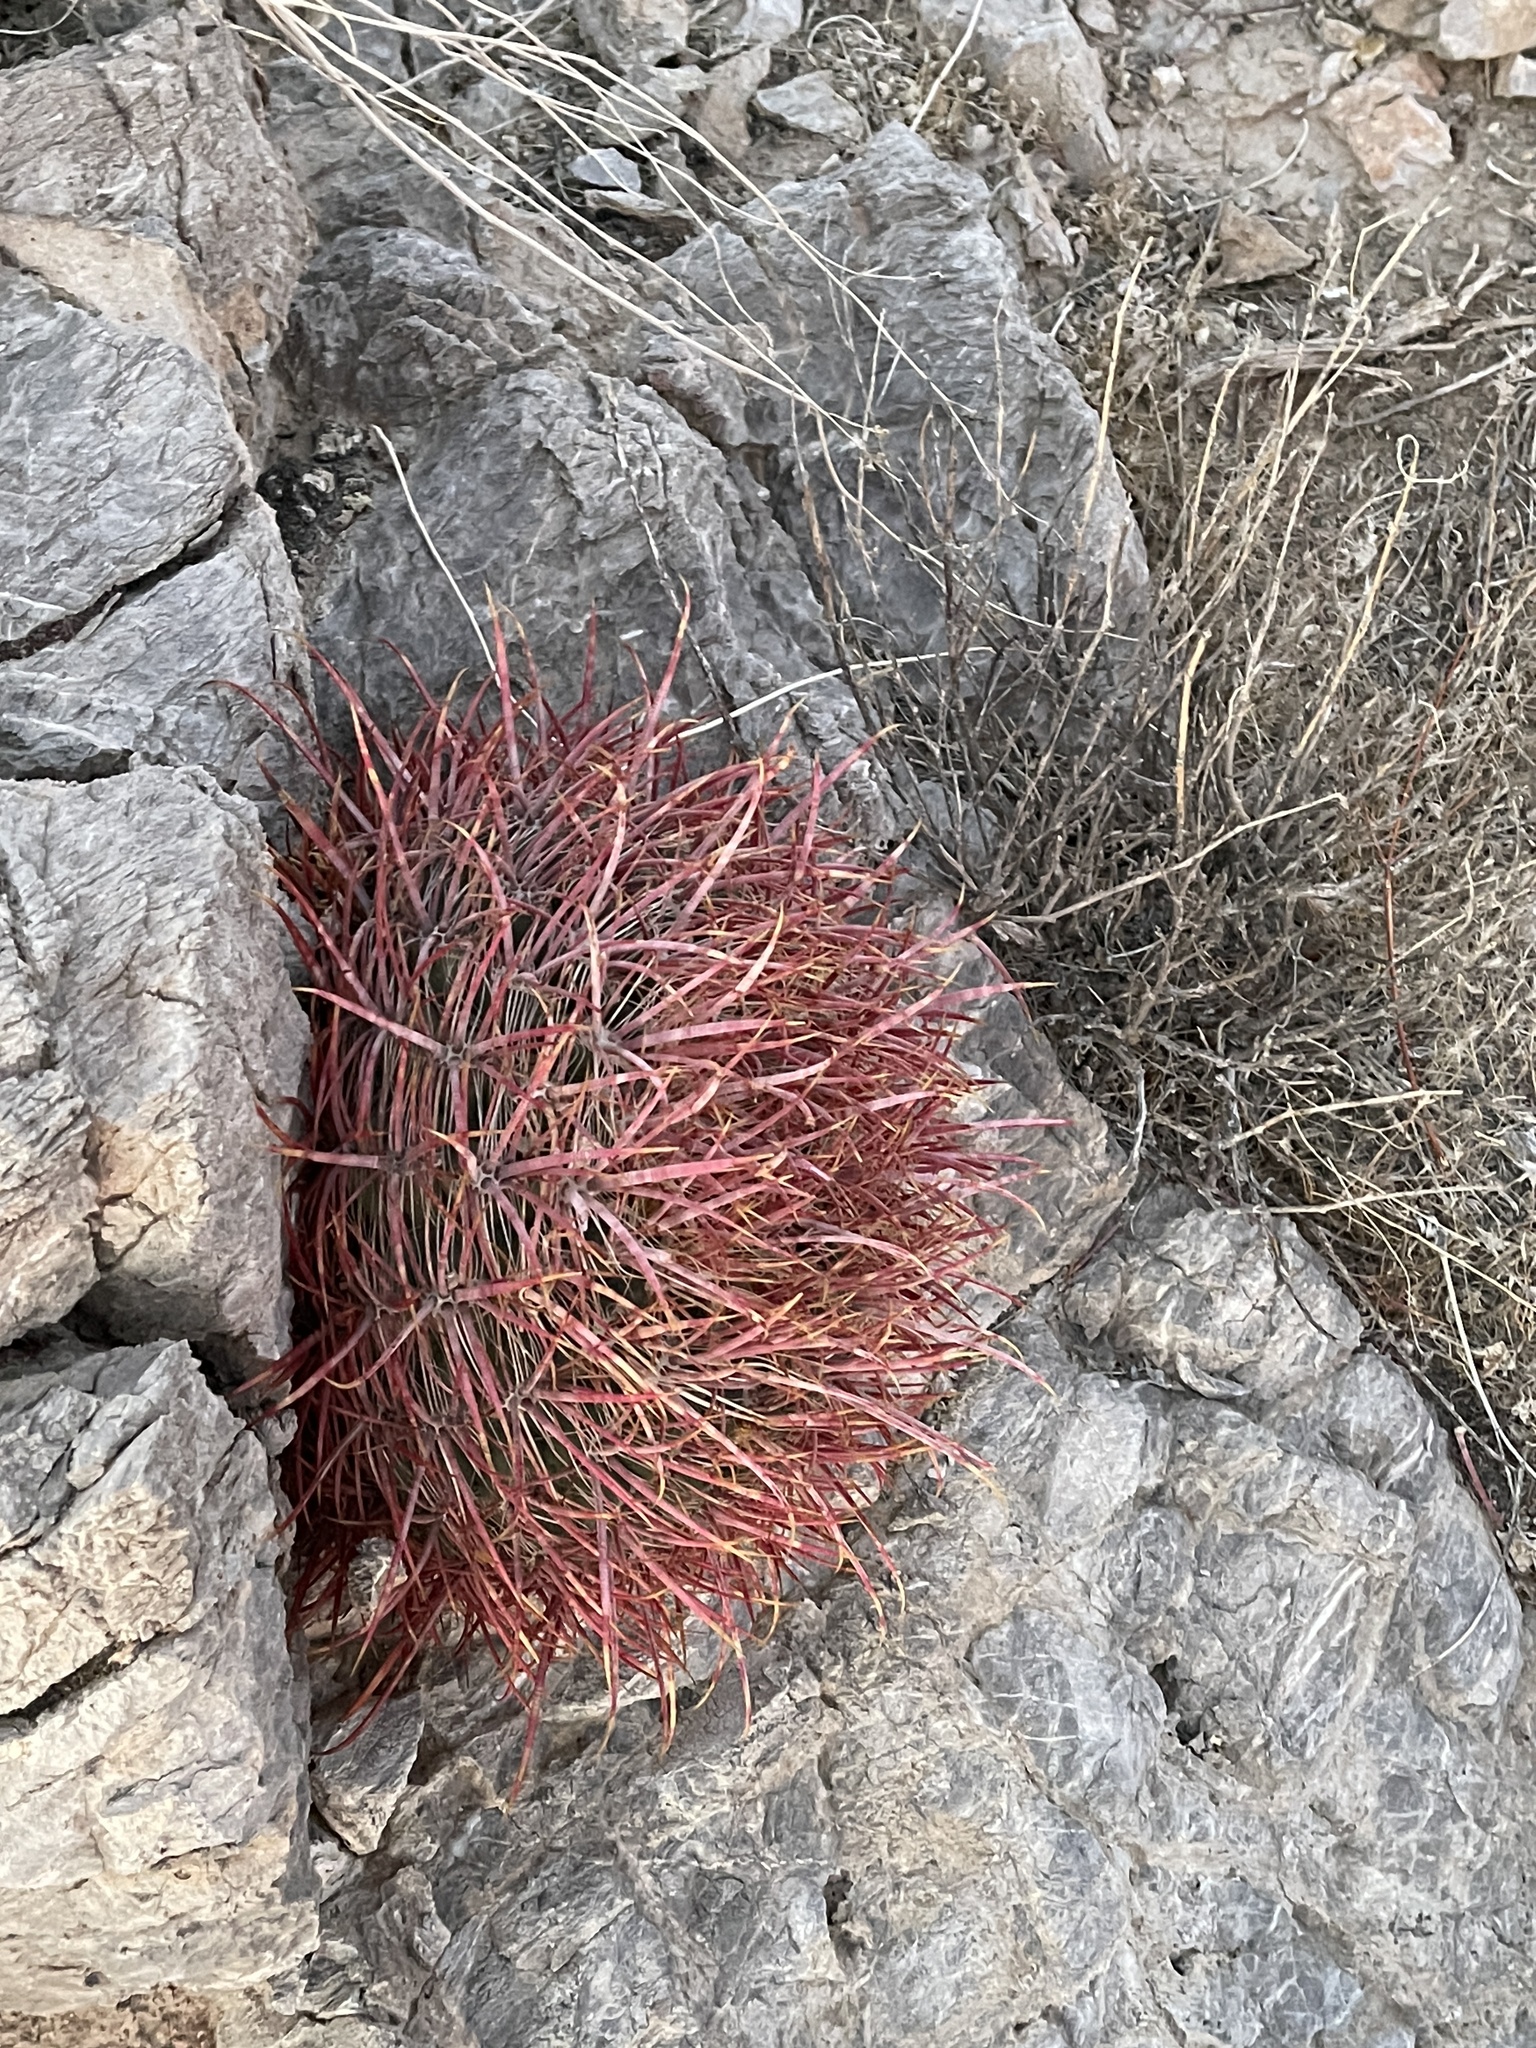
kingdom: Plantae
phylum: Tracheophyta
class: Magnoliopsida
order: Caryophyllales
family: Cactaceae
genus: Ferocactus
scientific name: Ferocactus cylindraceus
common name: California barrel cactus
